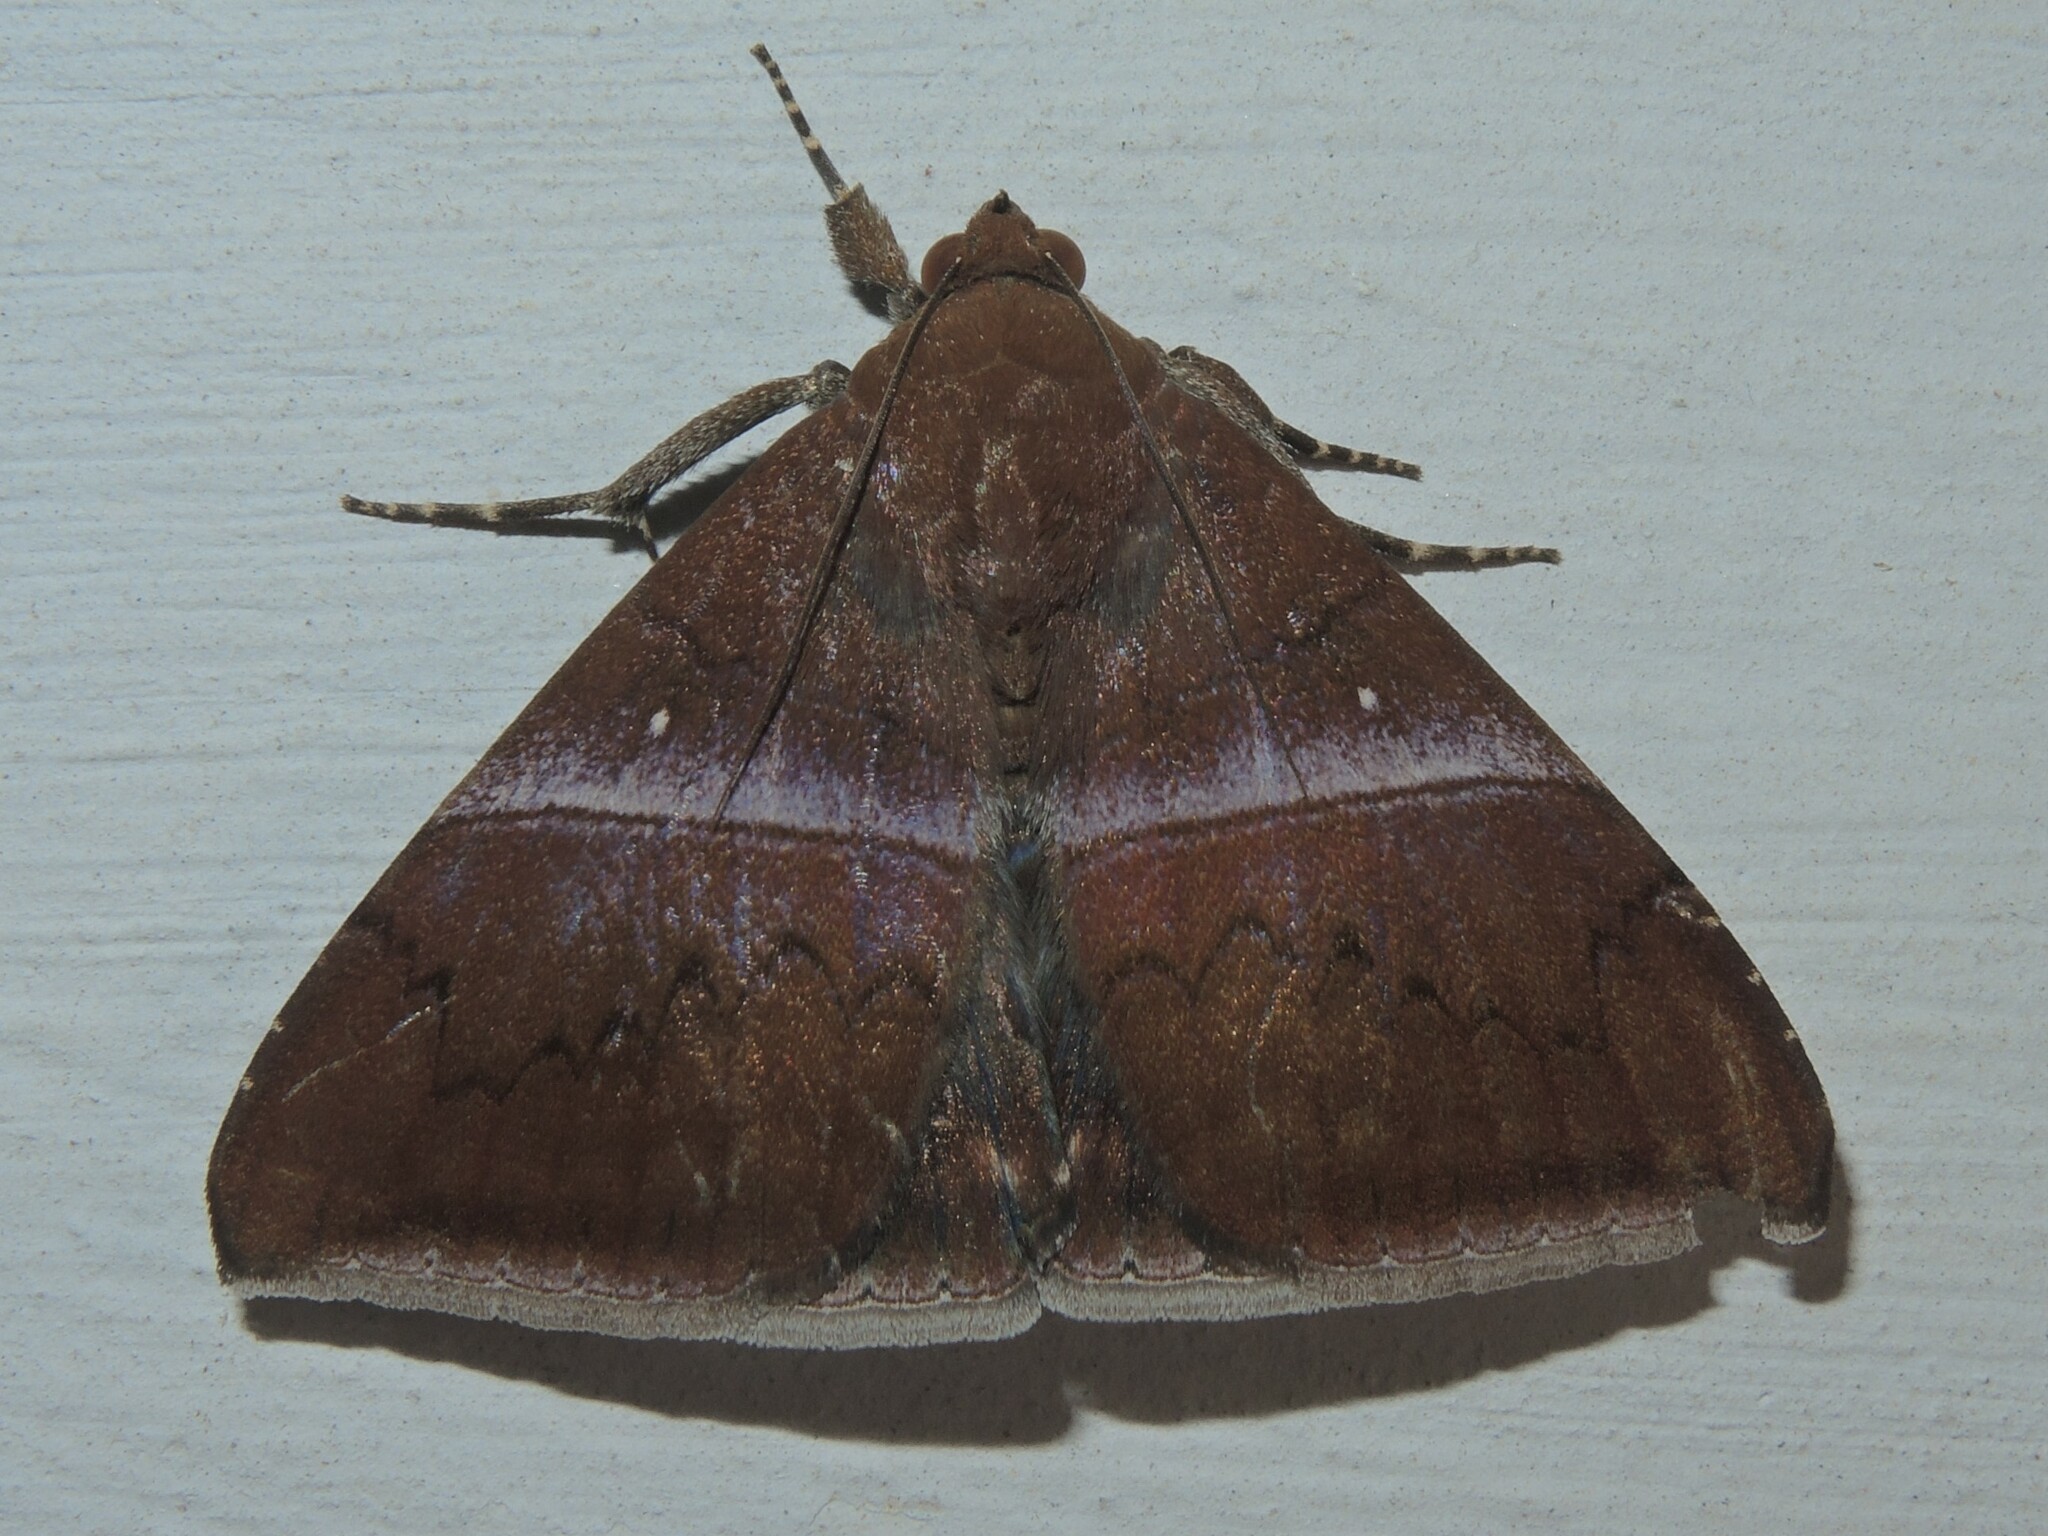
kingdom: Animalia
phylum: Arthropoda
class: Insecta
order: Lepidoptera
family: Erebidae
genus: Parallelia
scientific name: Parallelia
